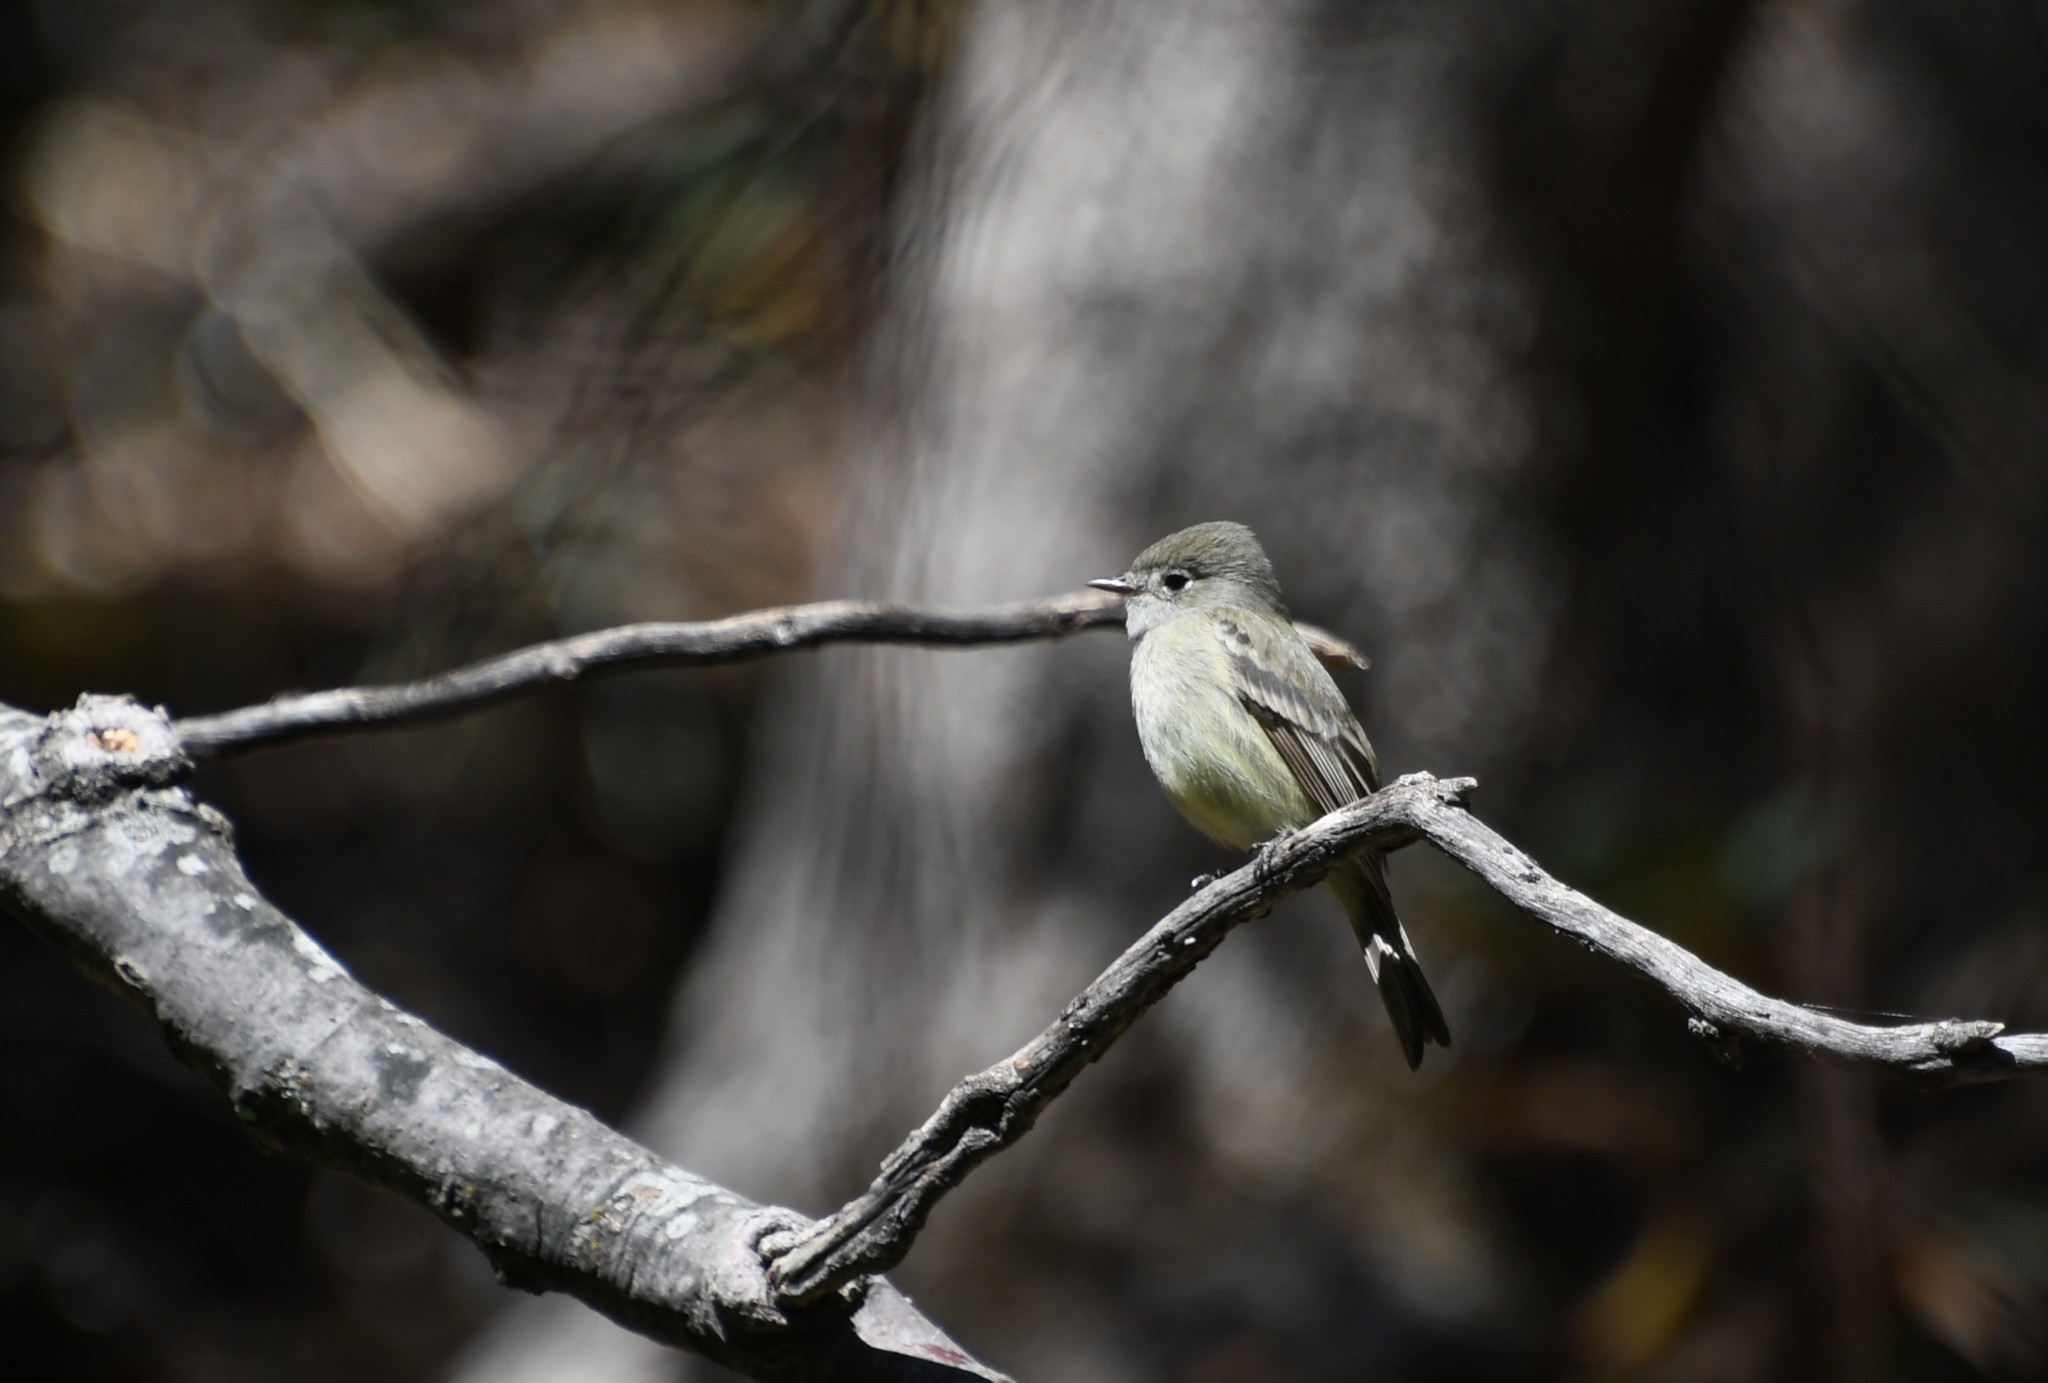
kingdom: Animalia
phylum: Chordata
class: Aves
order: Passeriformes
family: Tyrannidae
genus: Empidonax
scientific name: Empidonax hammondii
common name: Hammond's flycatcher
